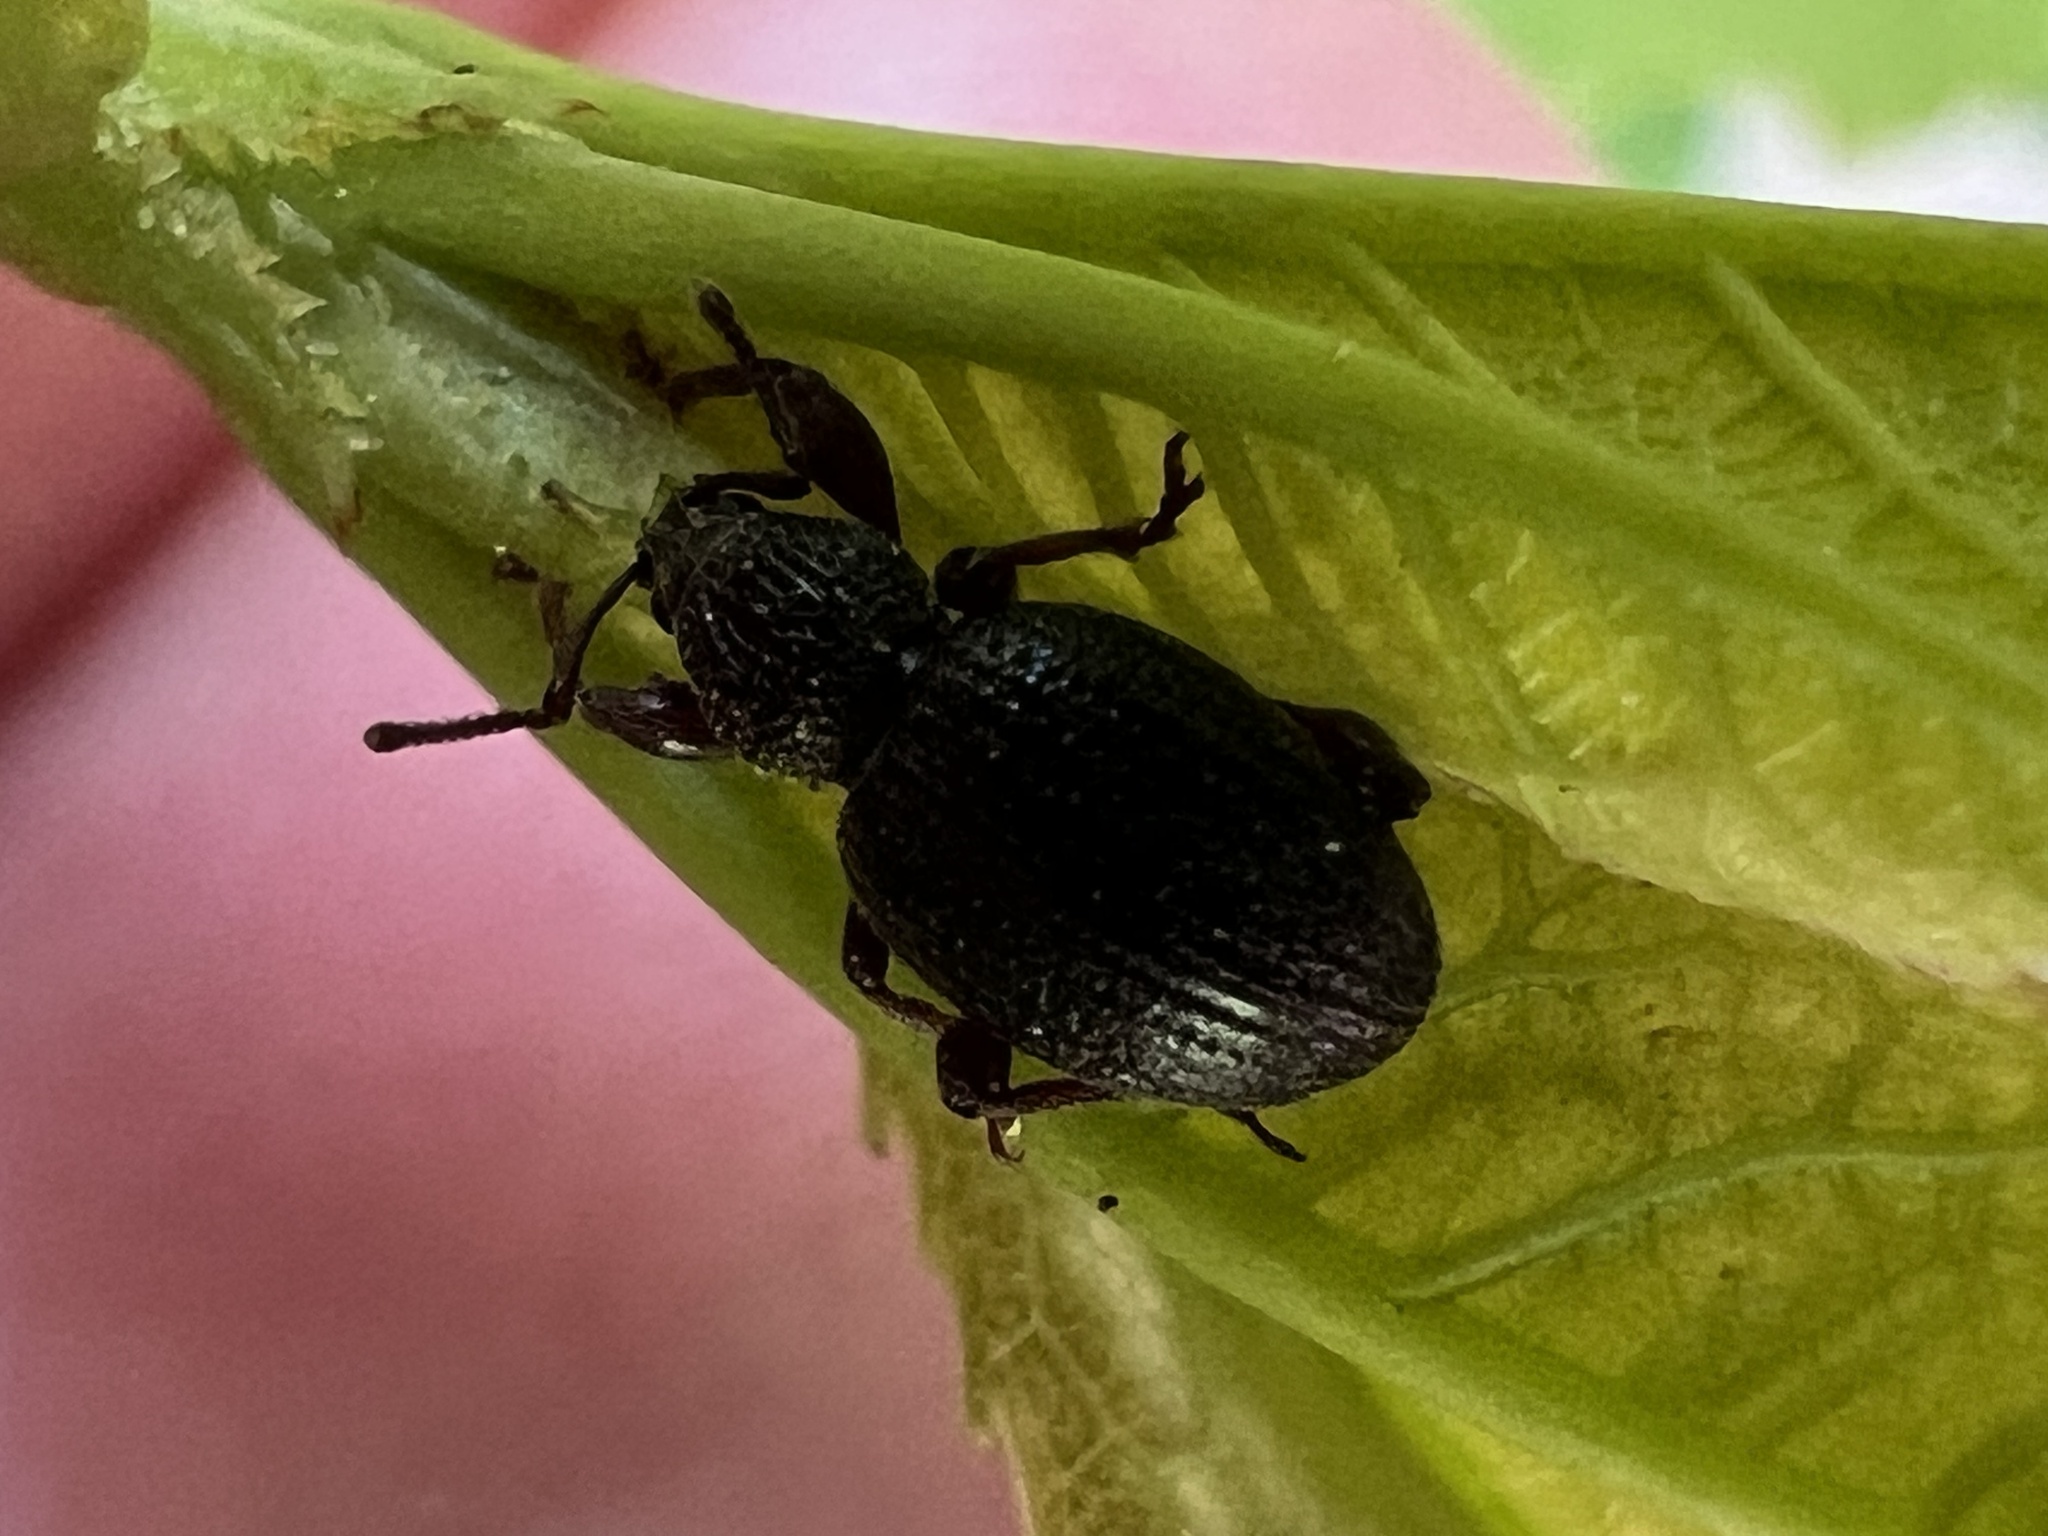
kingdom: Animalia
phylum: Arthropoda
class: Insecta
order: Coleoptera
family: Curculionidae
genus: Otiorhynchus
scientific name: Otiorhynchus ovatus
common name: Strawberry root weevil
